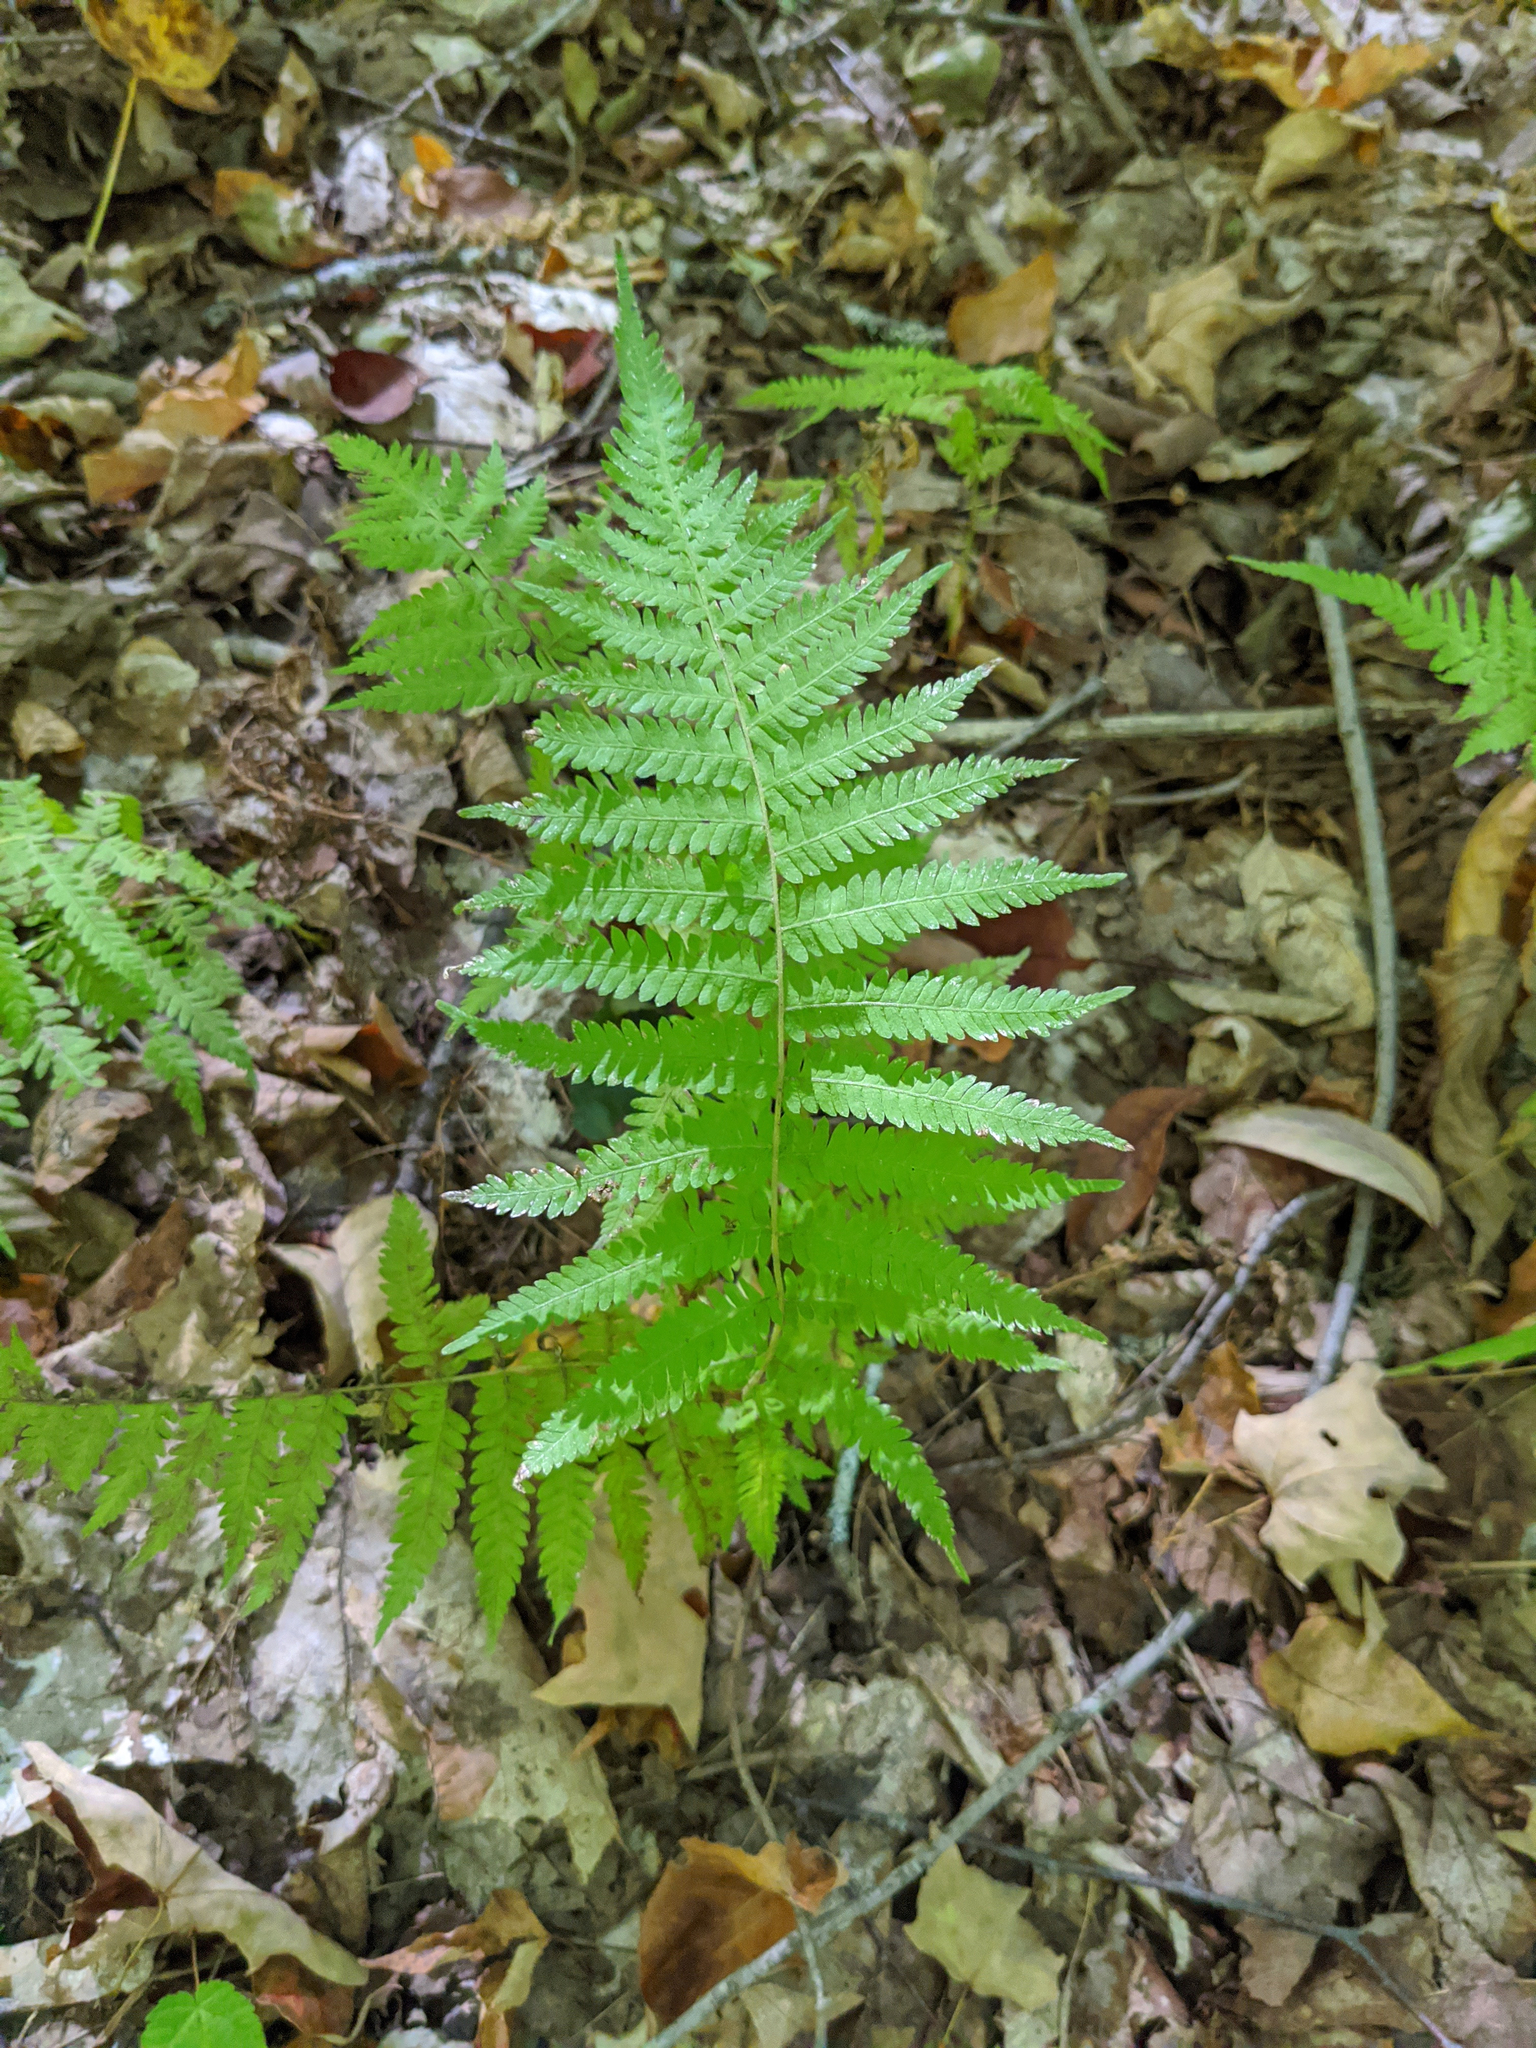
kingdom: Plantae
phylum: Tracheophyta
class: Polypodiopsida
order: Polypodiales
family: Thelypteridaceae
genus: Amauropelta
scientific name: Amauropelta noveboracensis
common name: New york fern
